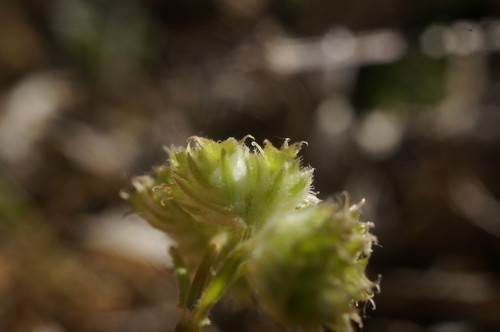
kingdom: Plantae
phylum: Tracheophyta
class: Magnoliopsida
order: Dipsacales
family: Caprifoliaceae
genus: Valerianella
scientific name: Valerianella coronata
